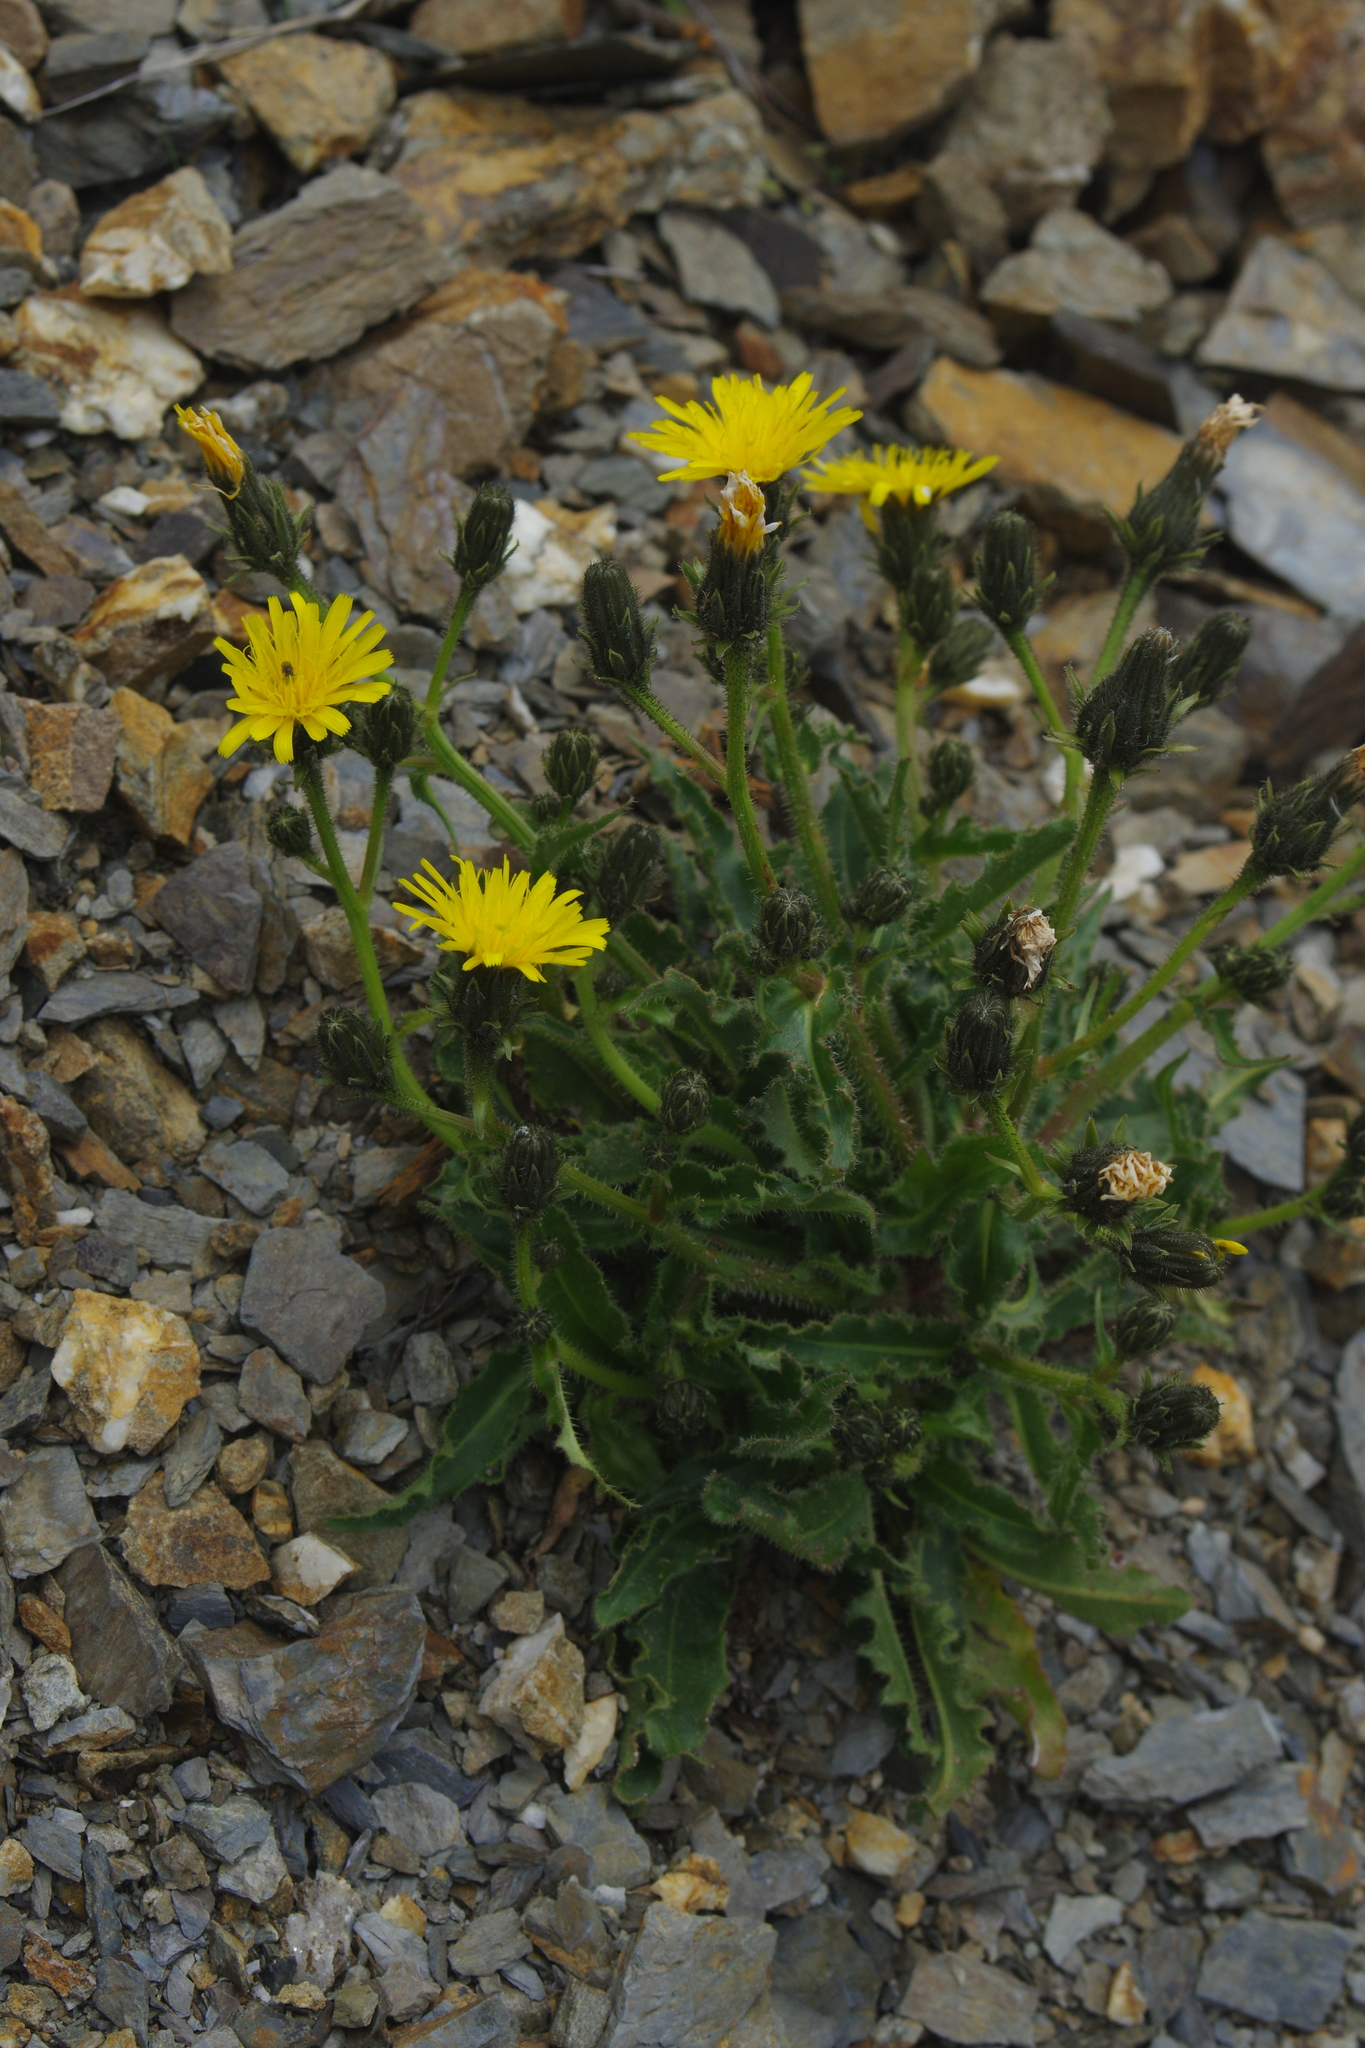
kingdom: Plantae
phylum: Tracheophyta
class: Magnoliopsida
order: Asterales
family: Asteraceae
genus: Picris
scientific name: Picris angustifolia
